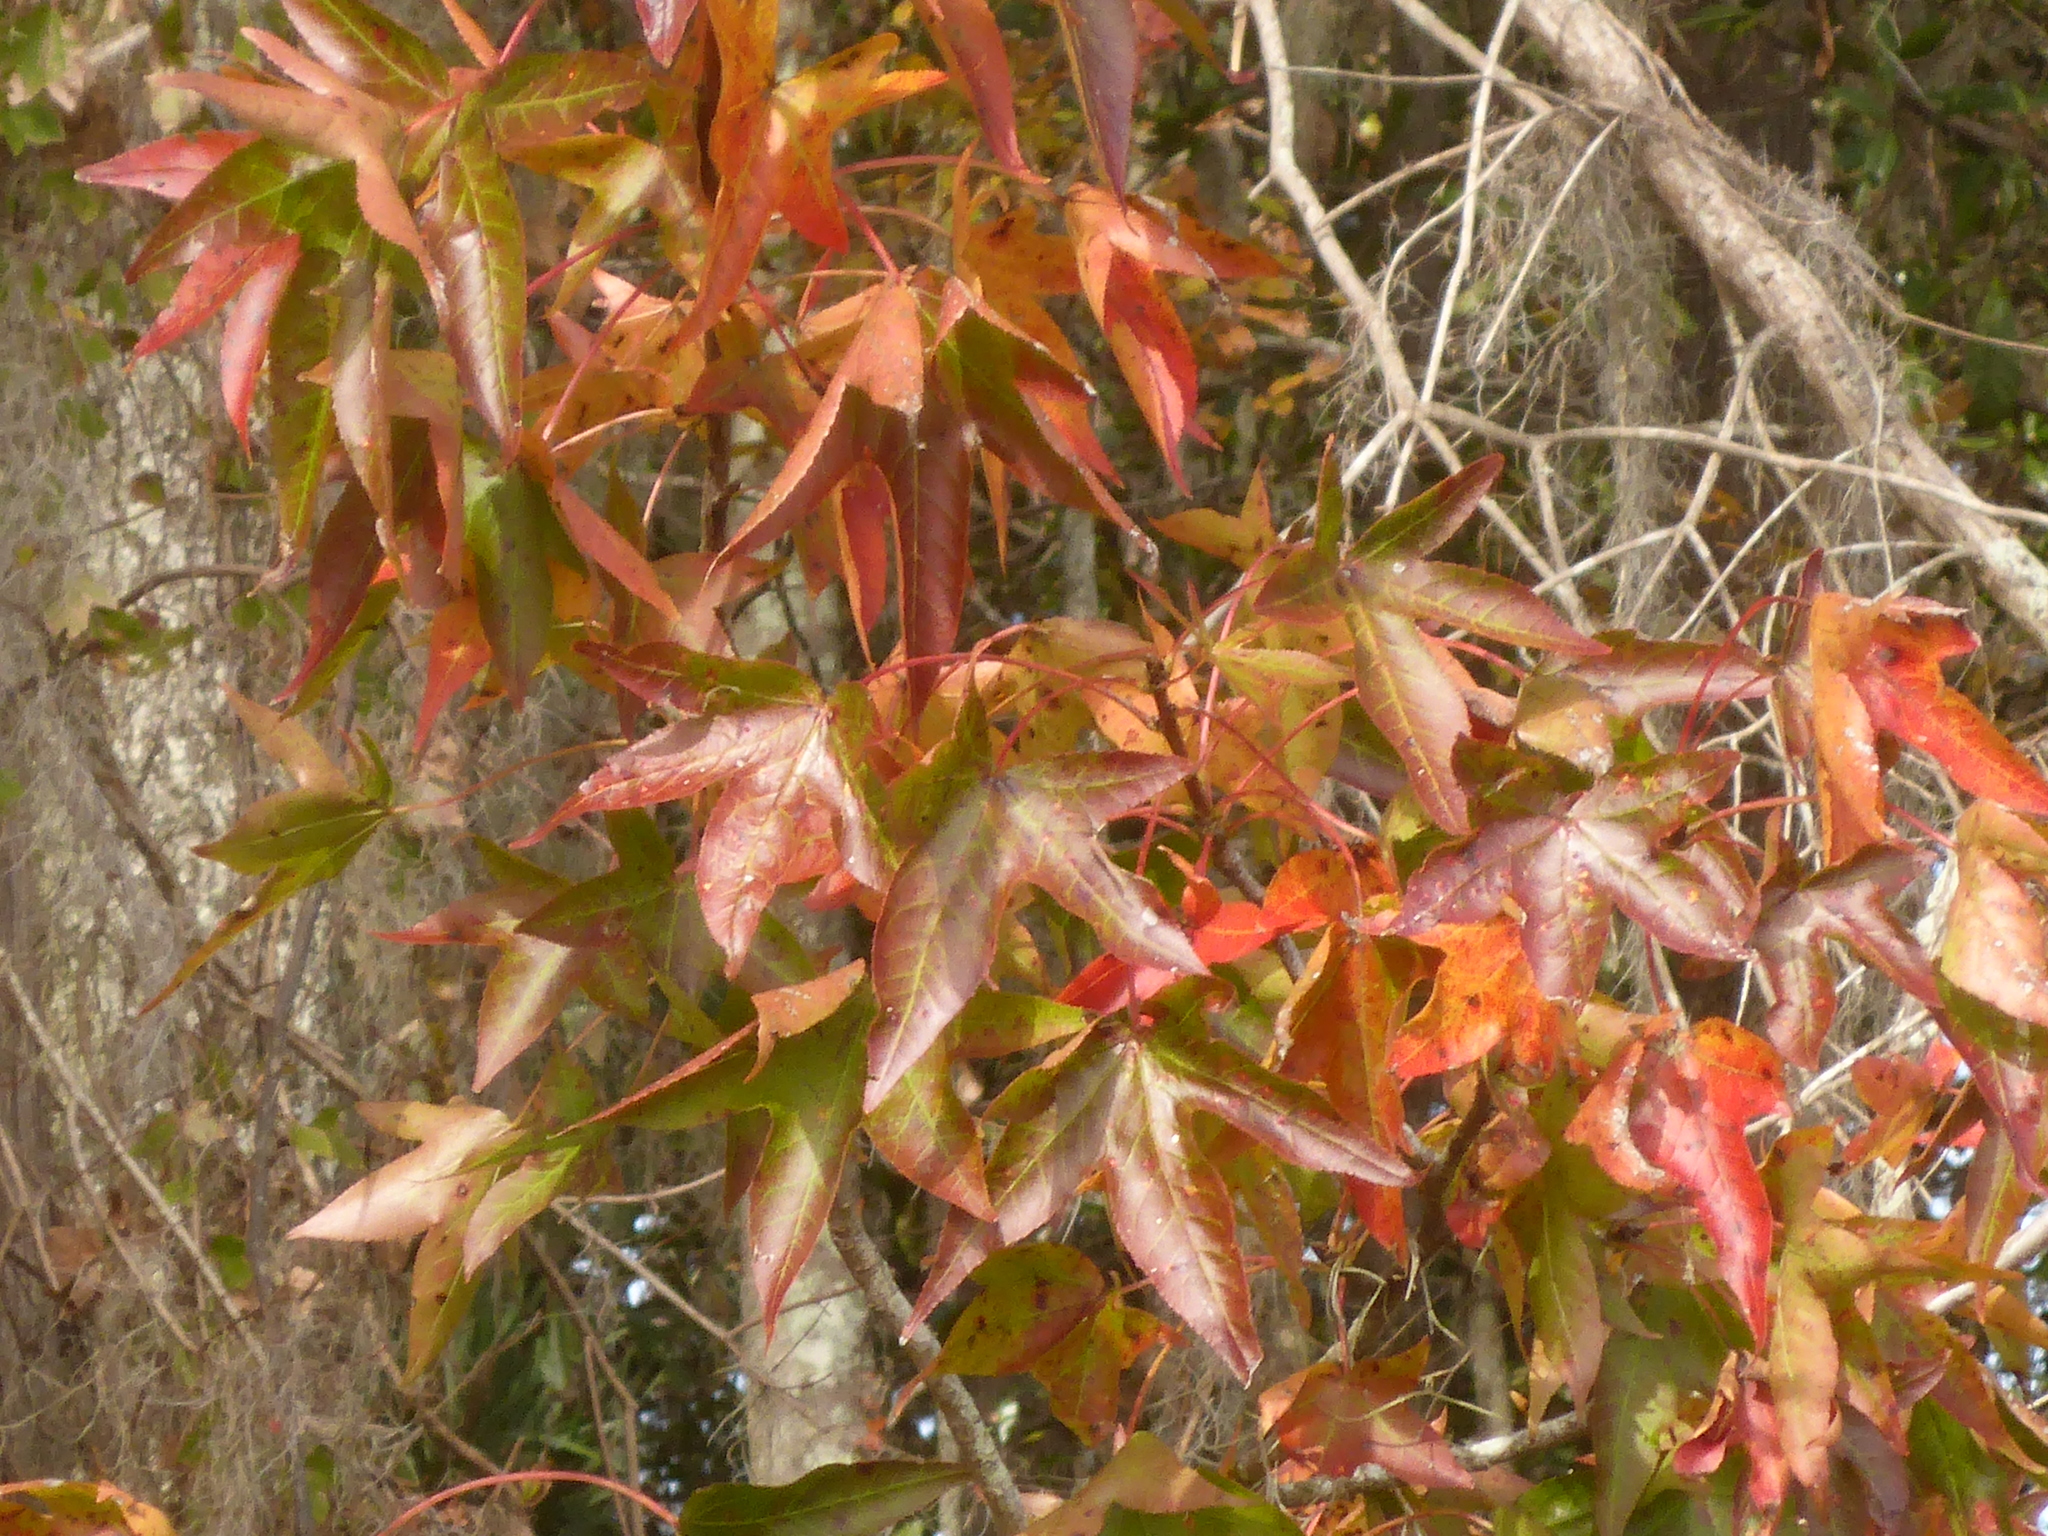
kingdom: Plantae
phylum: Tracheophyta
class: Magnoliopsida
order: Saxifragales
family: Altingiaceae
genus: Liquidambar
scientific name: Liquidambar styraciflua
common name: Sweet gum
